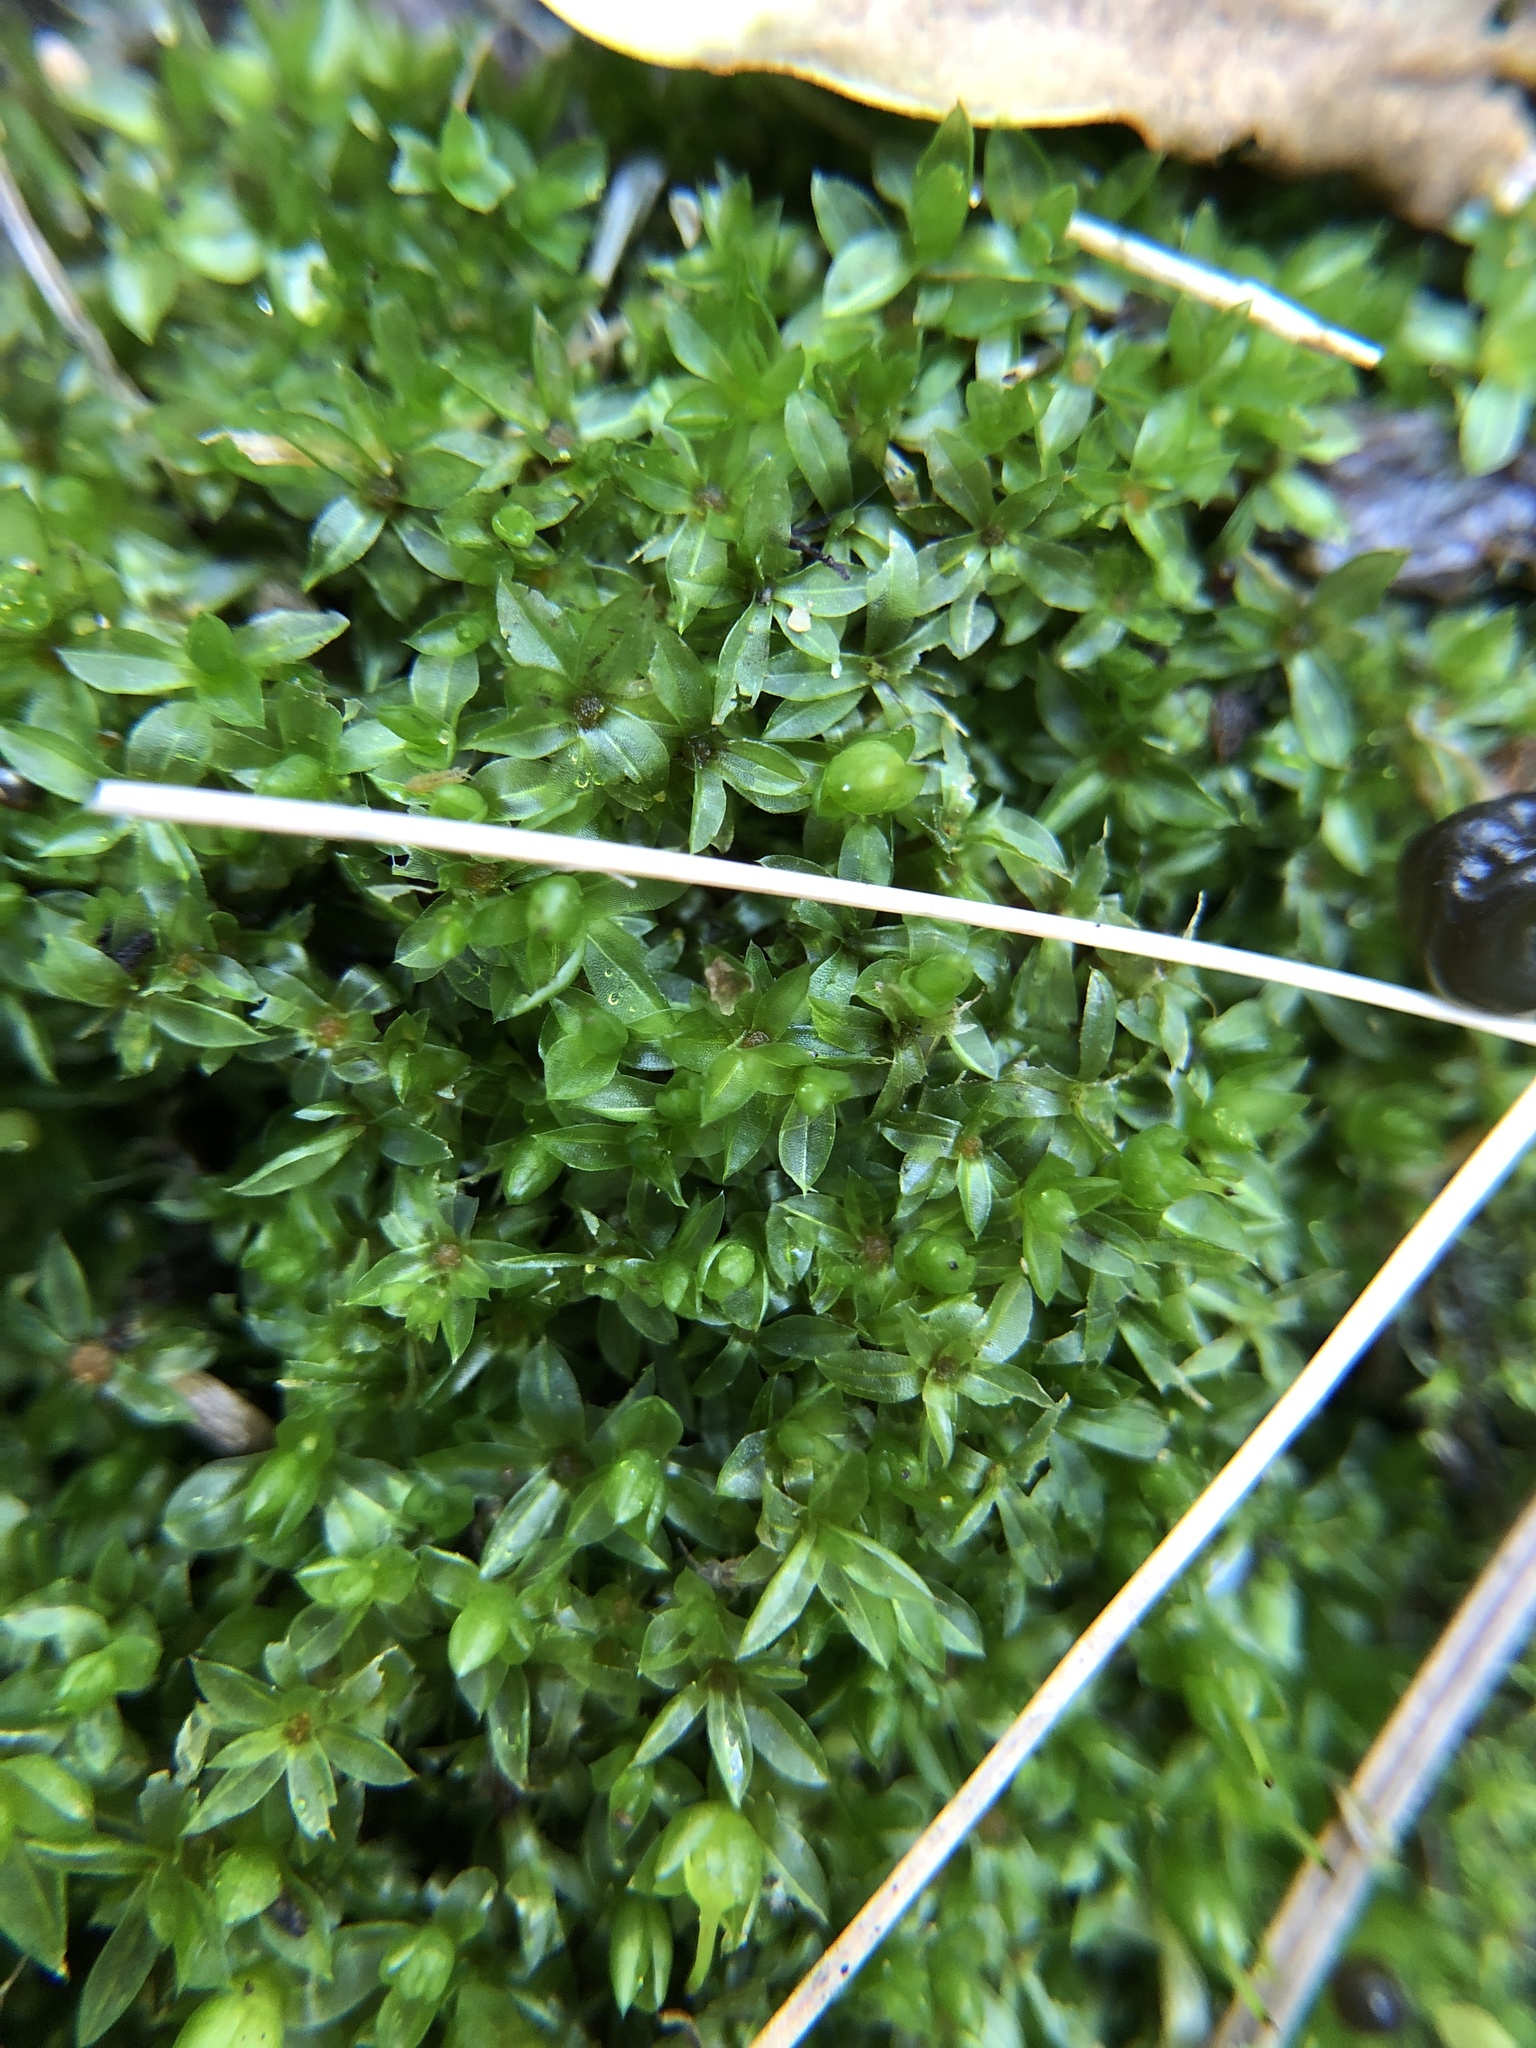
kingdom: Plantae
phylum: Bryophyta
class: Bryopsida
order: Funariales
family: Funariaceae
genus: Funaria
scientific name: Funaria hygrometrica
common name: Common cord moss
